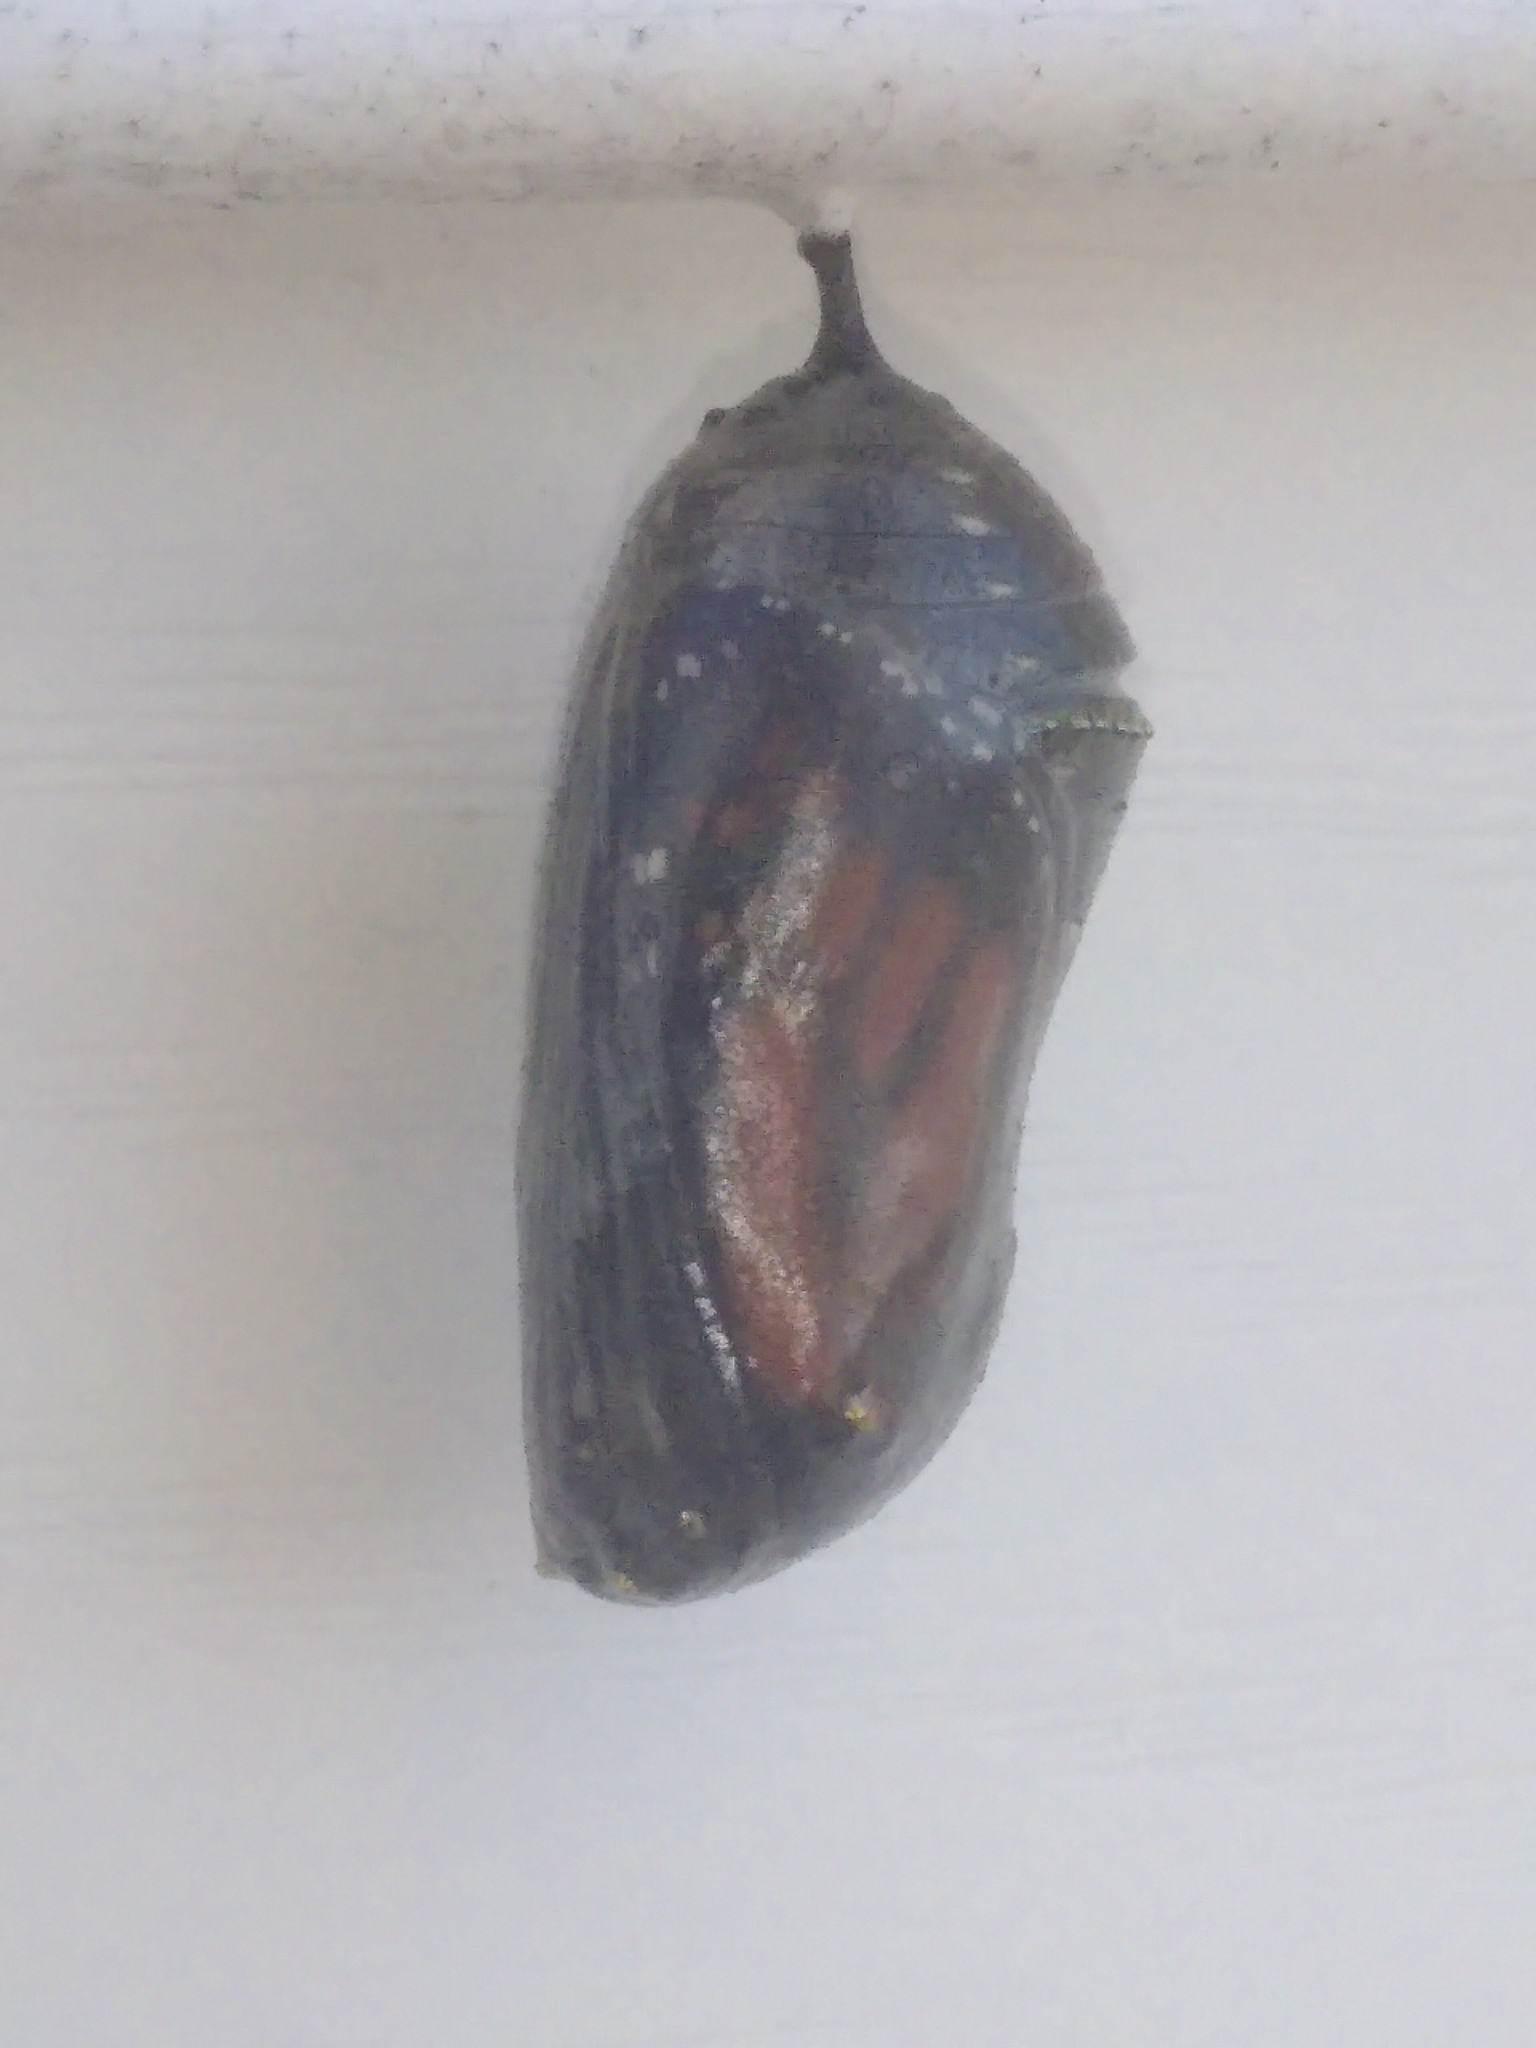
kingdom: Animalia
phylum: Arthropoda
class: Insecta
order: Lepidoptera
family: Nymphalidae
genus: Danaus
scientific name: Danaus plexippus
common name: Monarch
